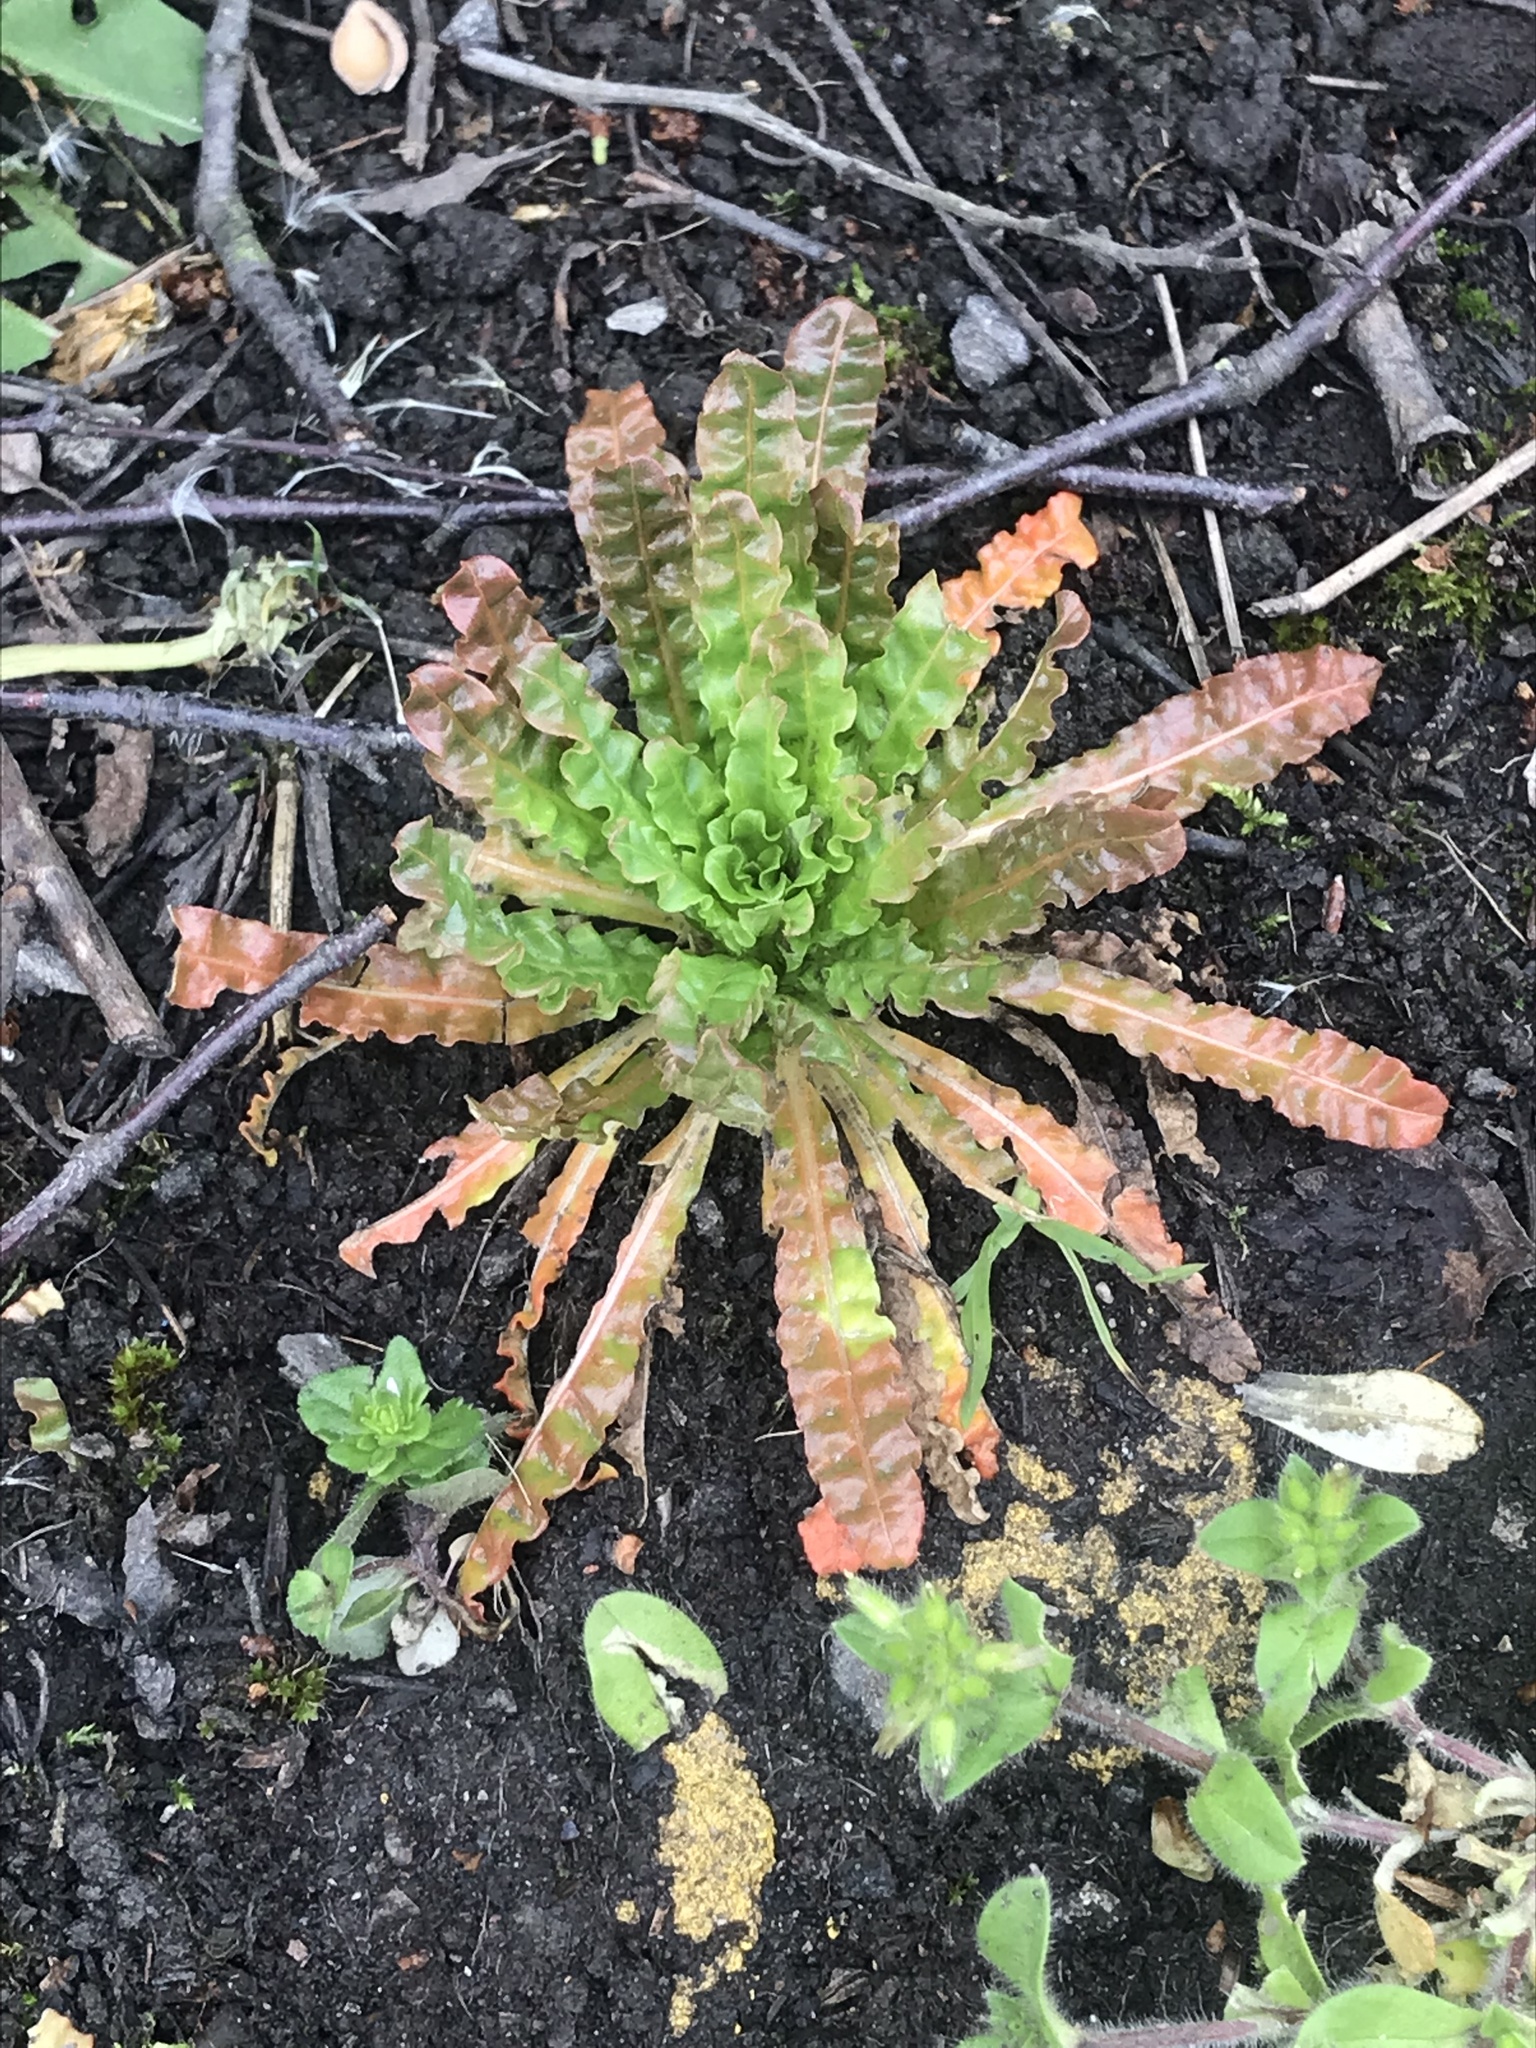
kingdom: Plantae
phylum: Tracheophyta
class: Magnoliopsida
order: Brassicales
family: Resedaceae
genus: Reseda
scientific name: Reseda luteola
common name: Weld
